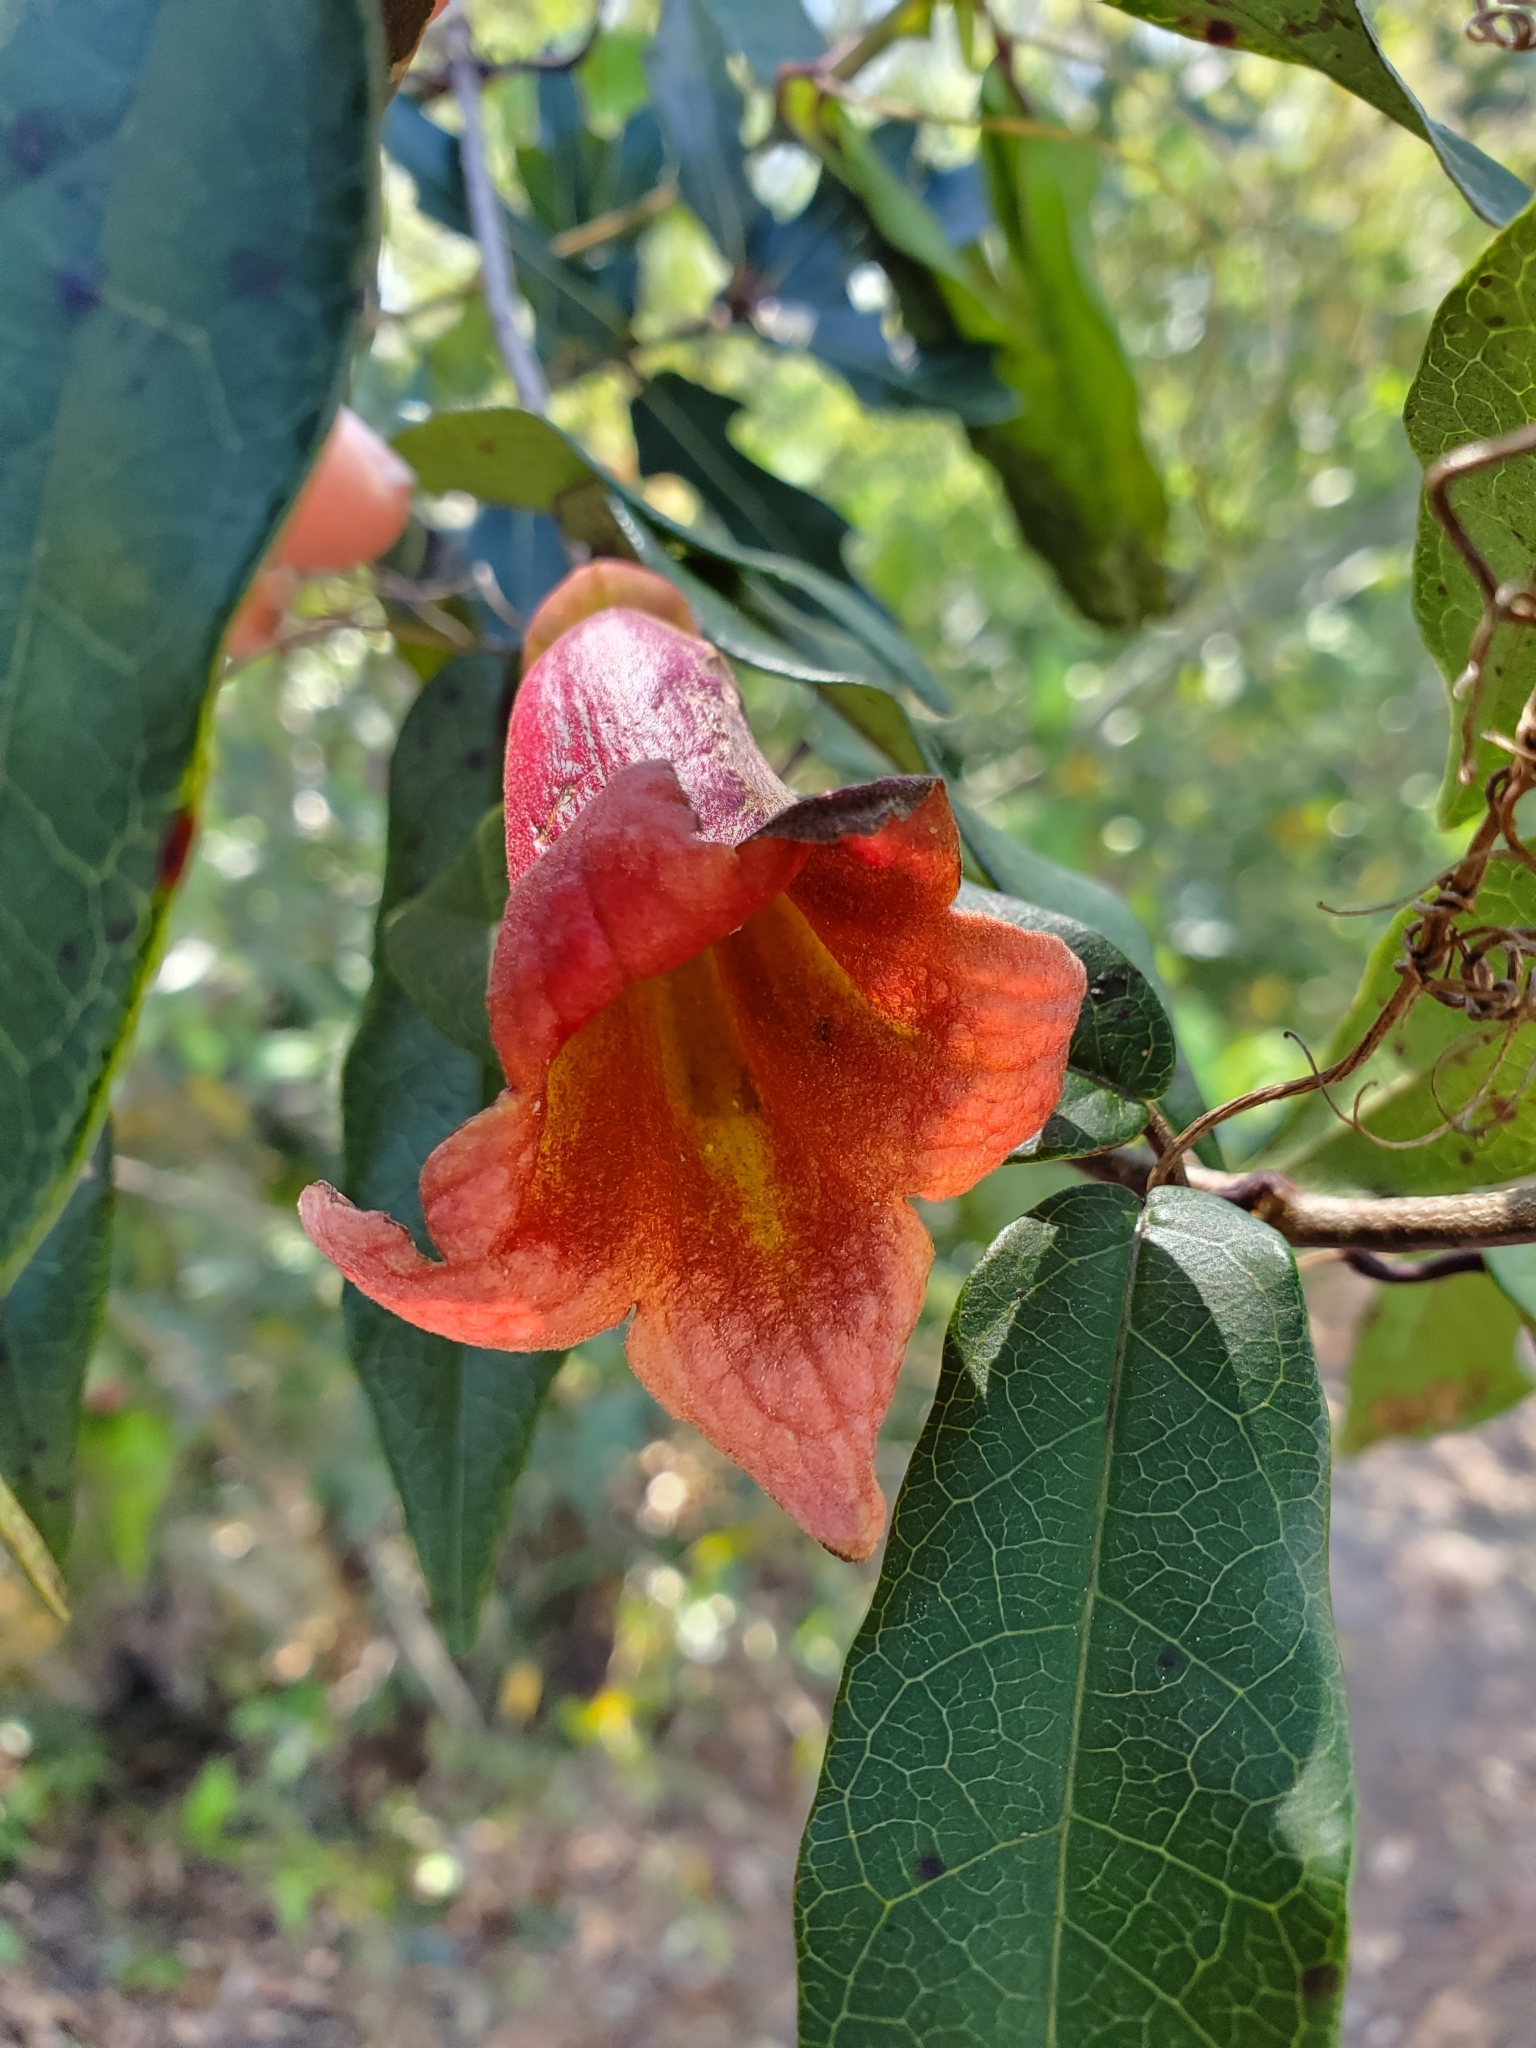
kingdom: Plantae
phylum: Tracheophyta
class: Magnoliopsida
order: Lamiales
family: Bignoniaceae
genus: Bignonia
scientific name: Bignonia capreolata
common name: Crossvine
